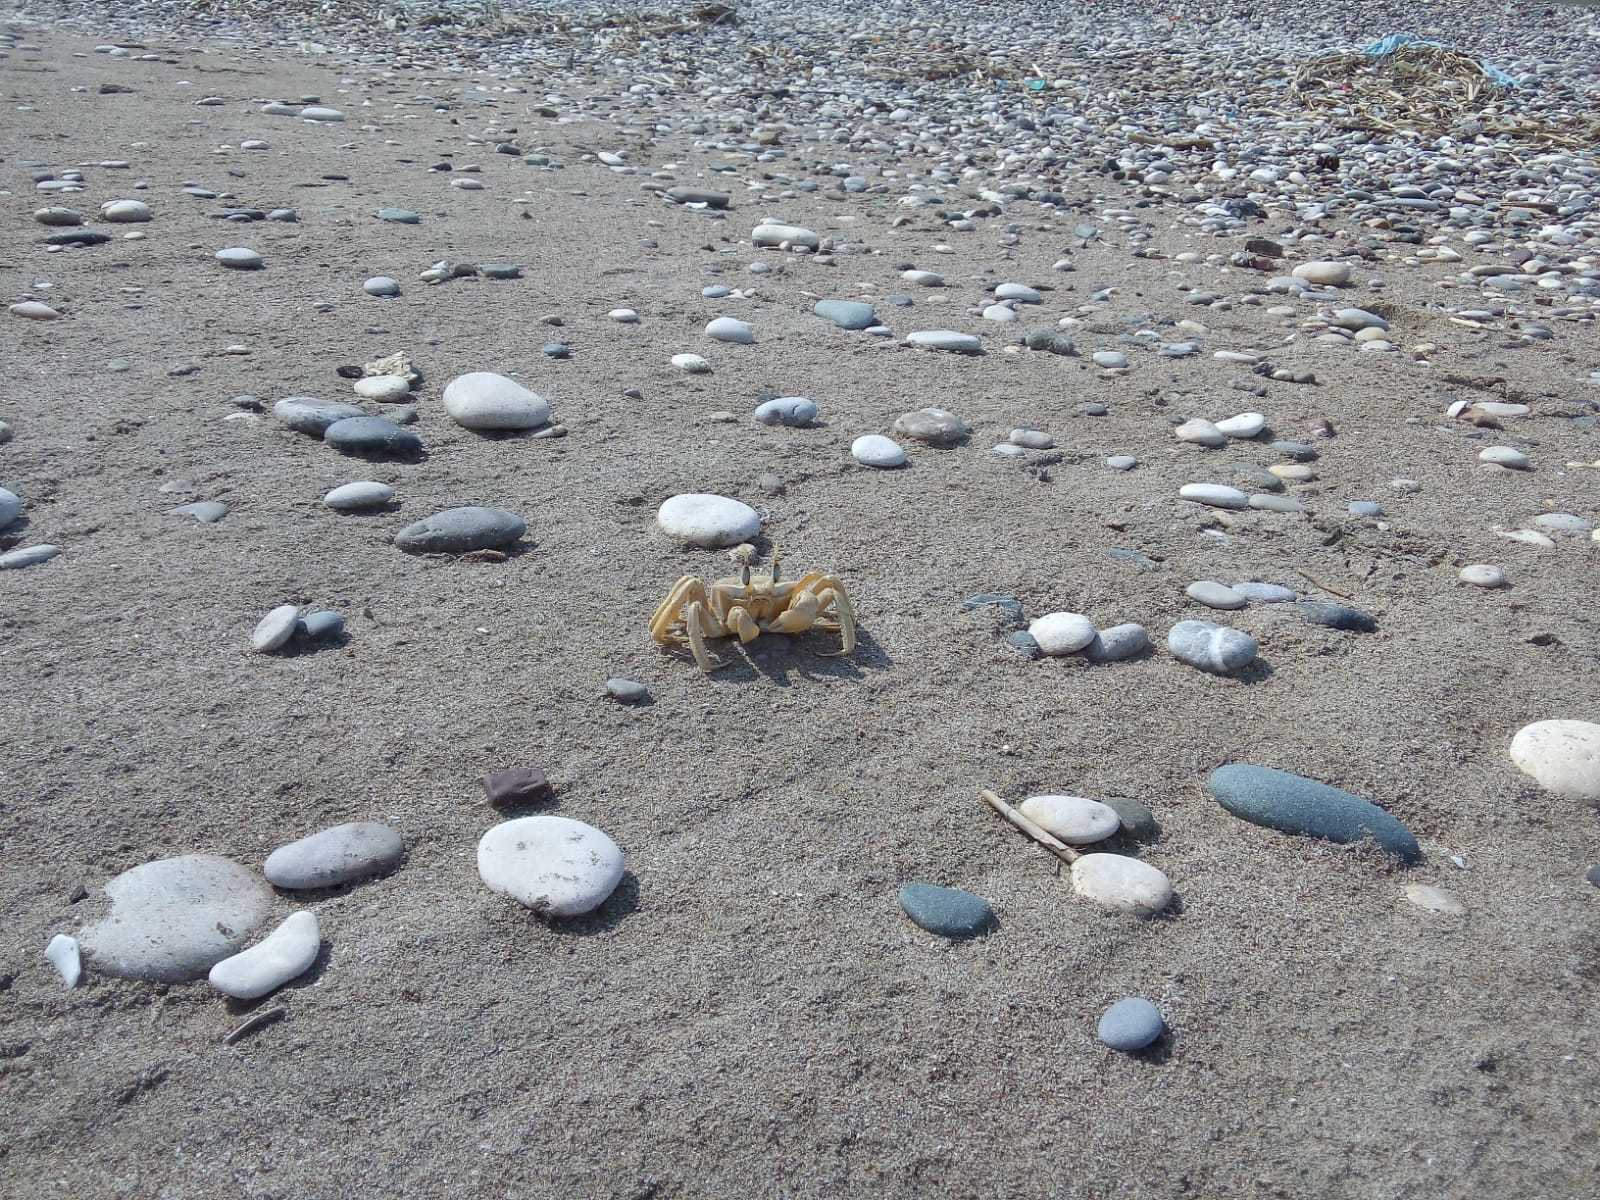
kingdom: Animalia
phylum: Arthropoda
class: Malacostraca
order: Decapoda
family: Ocypodidae
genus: Ocypode
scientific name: Ocypode cursor
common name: Tufted ghost crab
